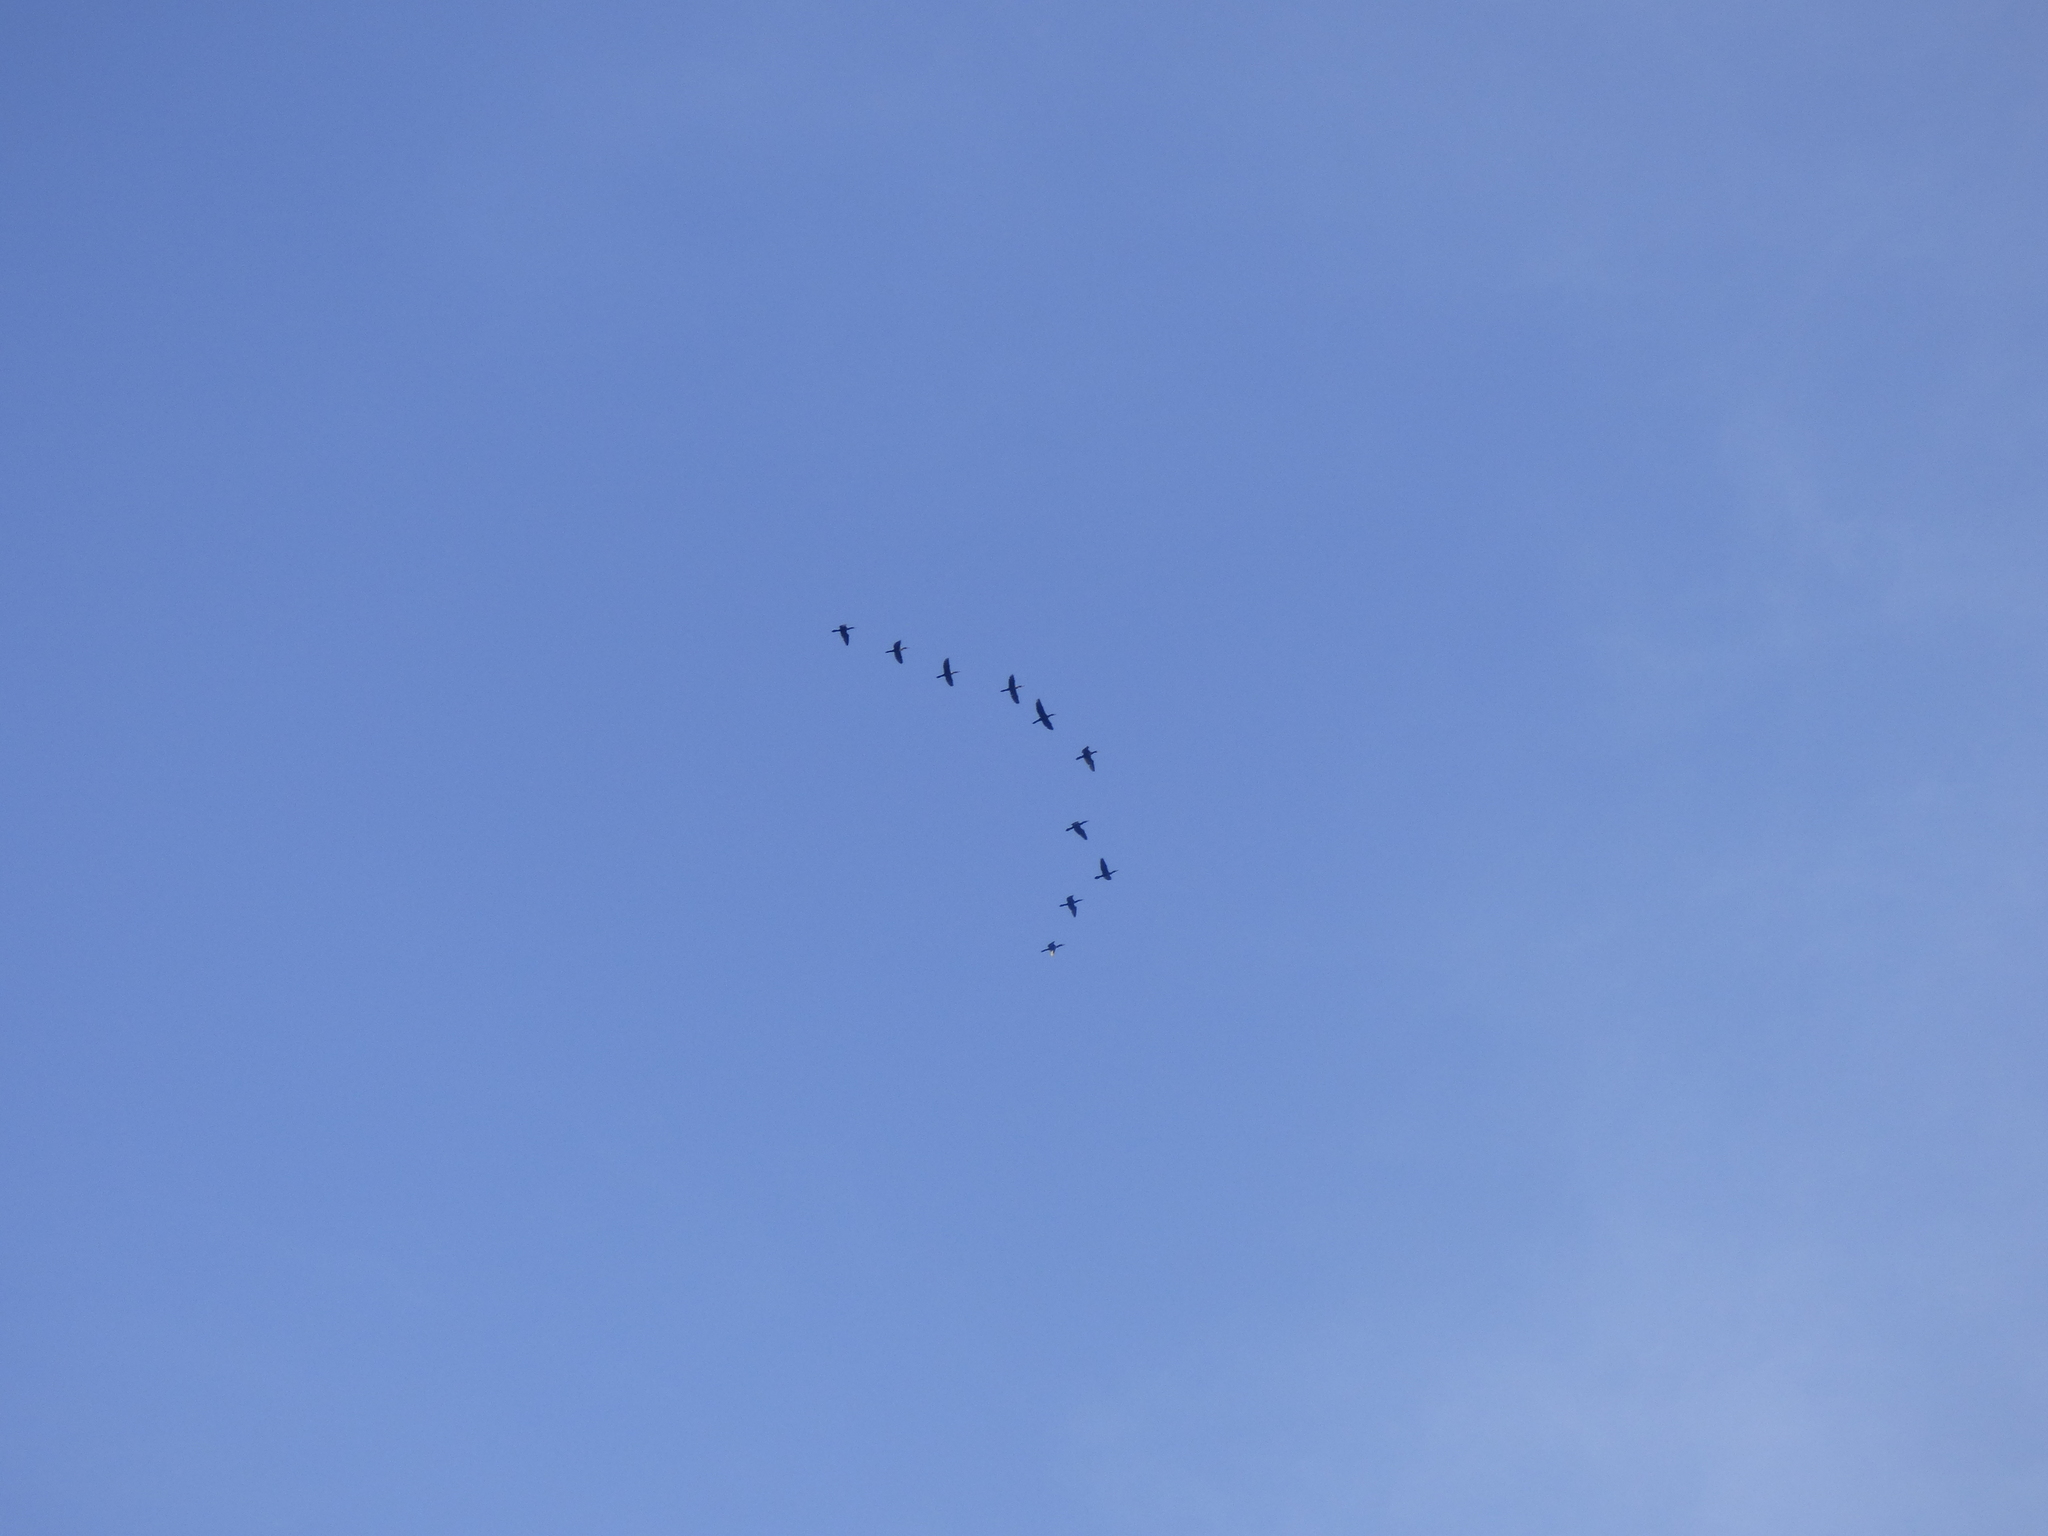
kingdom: Animalia
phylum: Chordata
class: Aves
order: Suliformes
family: Phalacrocoracidae
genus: Phalacrocorax
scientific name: Phalacrocorax brasilianus
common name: Neotropic cormorant
